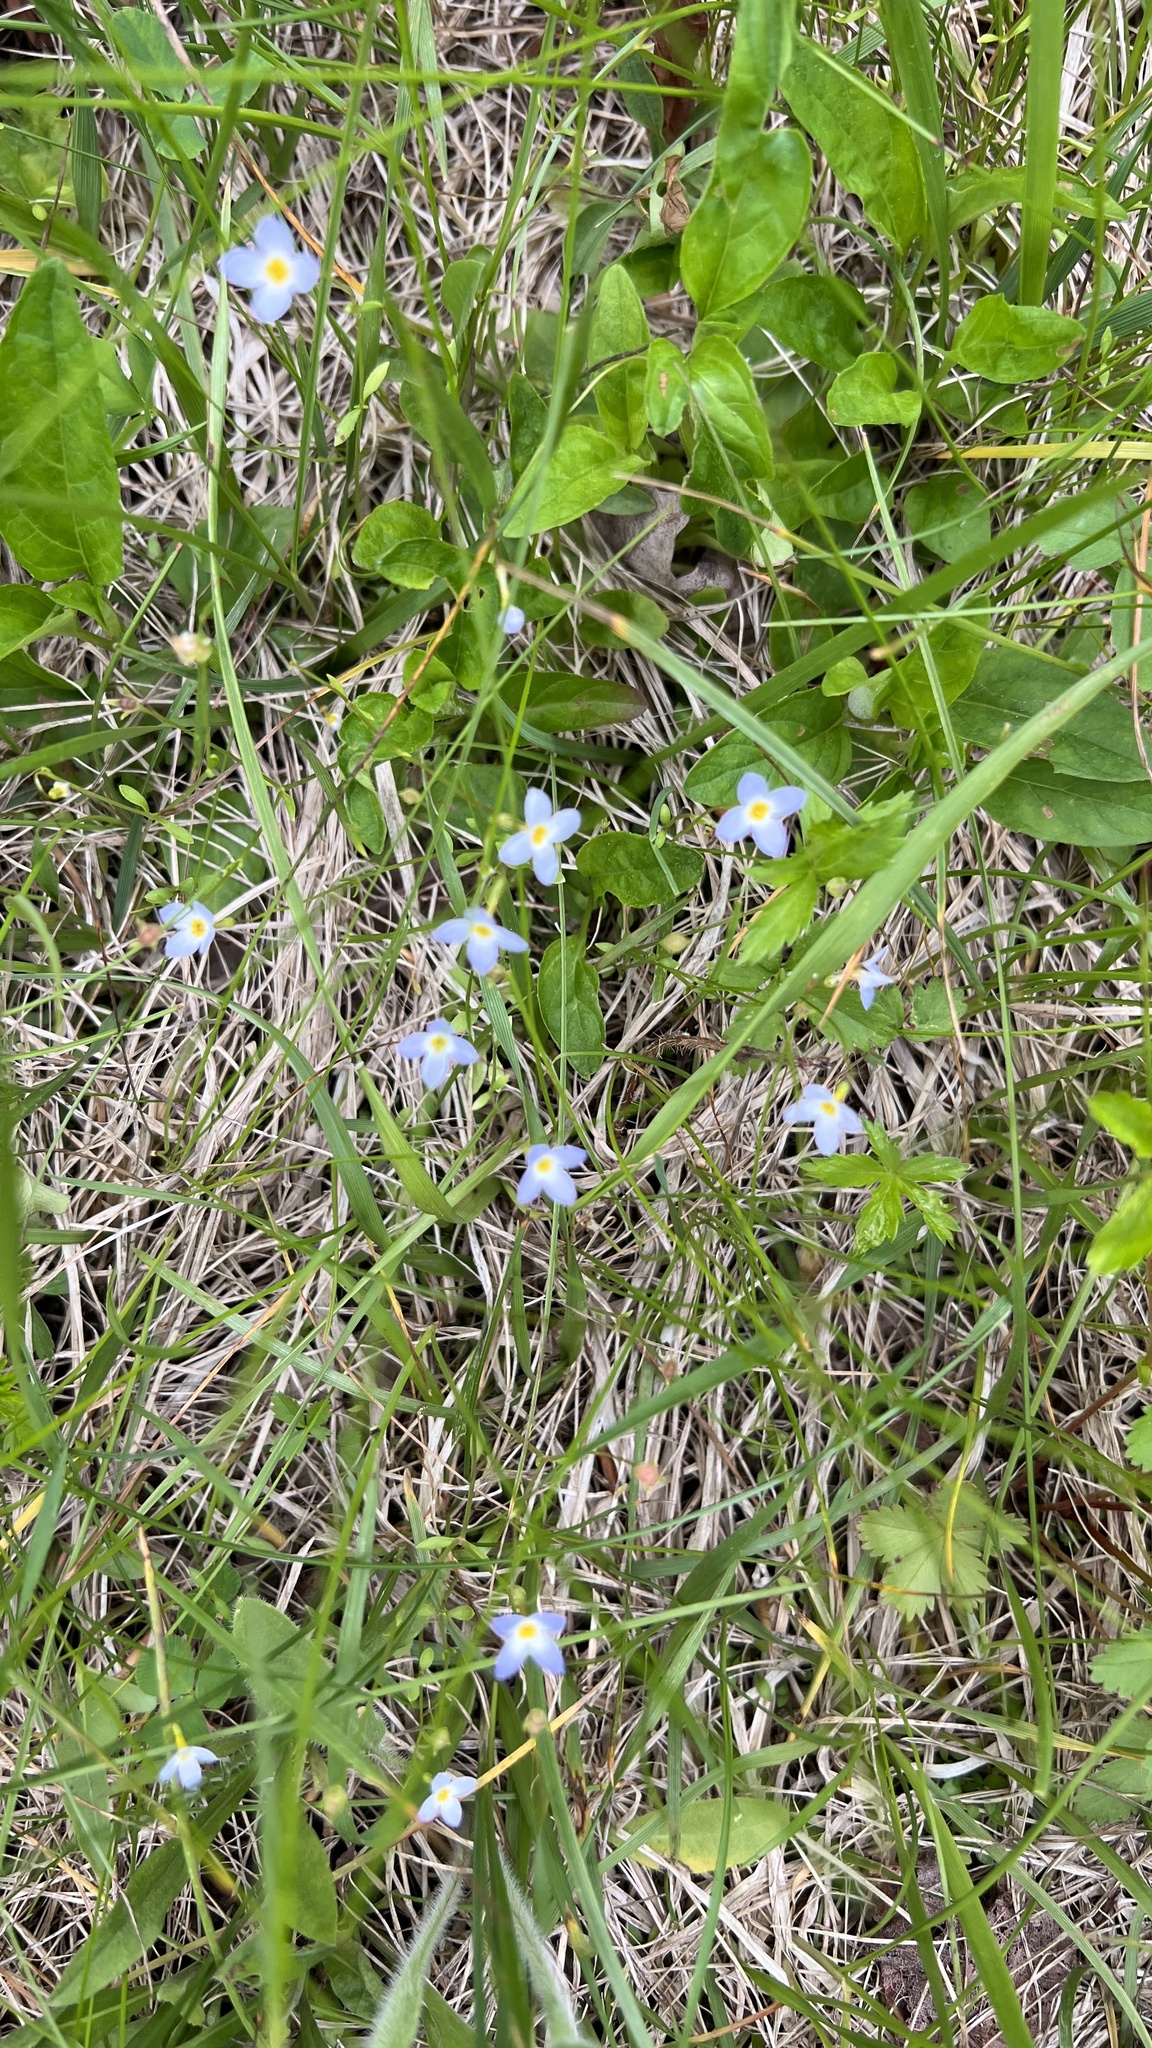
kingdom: Plantae
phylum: Tracheophyta
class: Magnoliopsida
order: Gentianales
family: Rubiaceae
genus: Houstonia
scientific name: Houstonia caerulea
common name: Bluets
